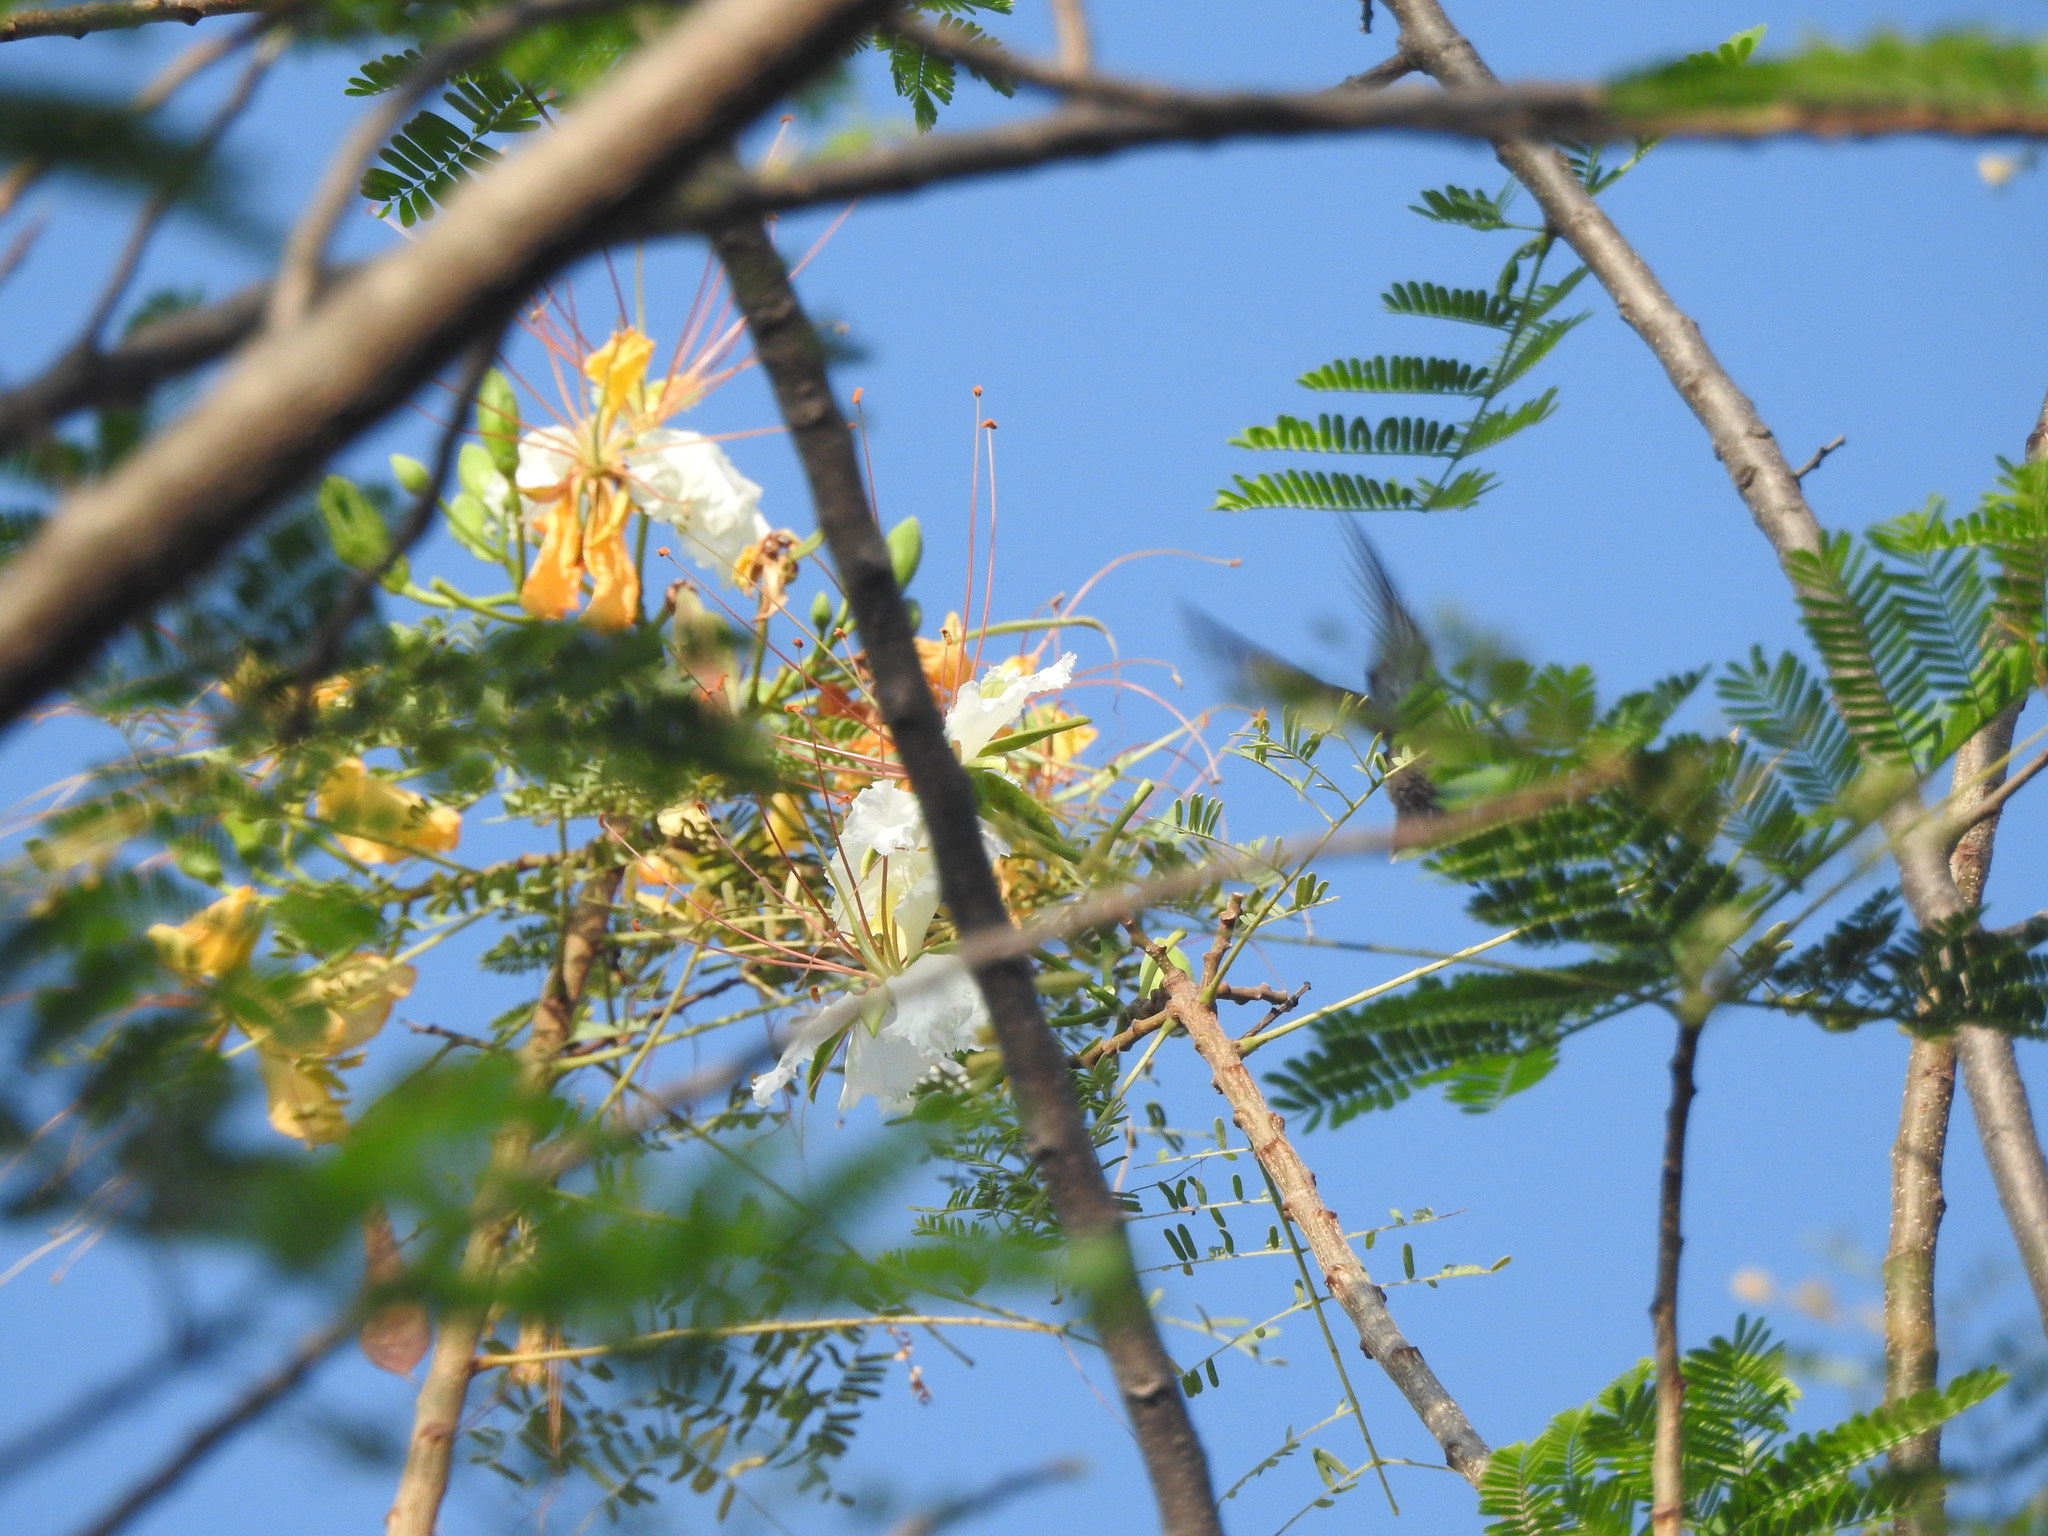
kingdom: Plantae
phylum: Tracheophyta
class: Magnoliopsida
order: Fabales
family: Fabaceae
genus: Delonix
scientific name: Delonix elata
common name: Creamy peacock flower
